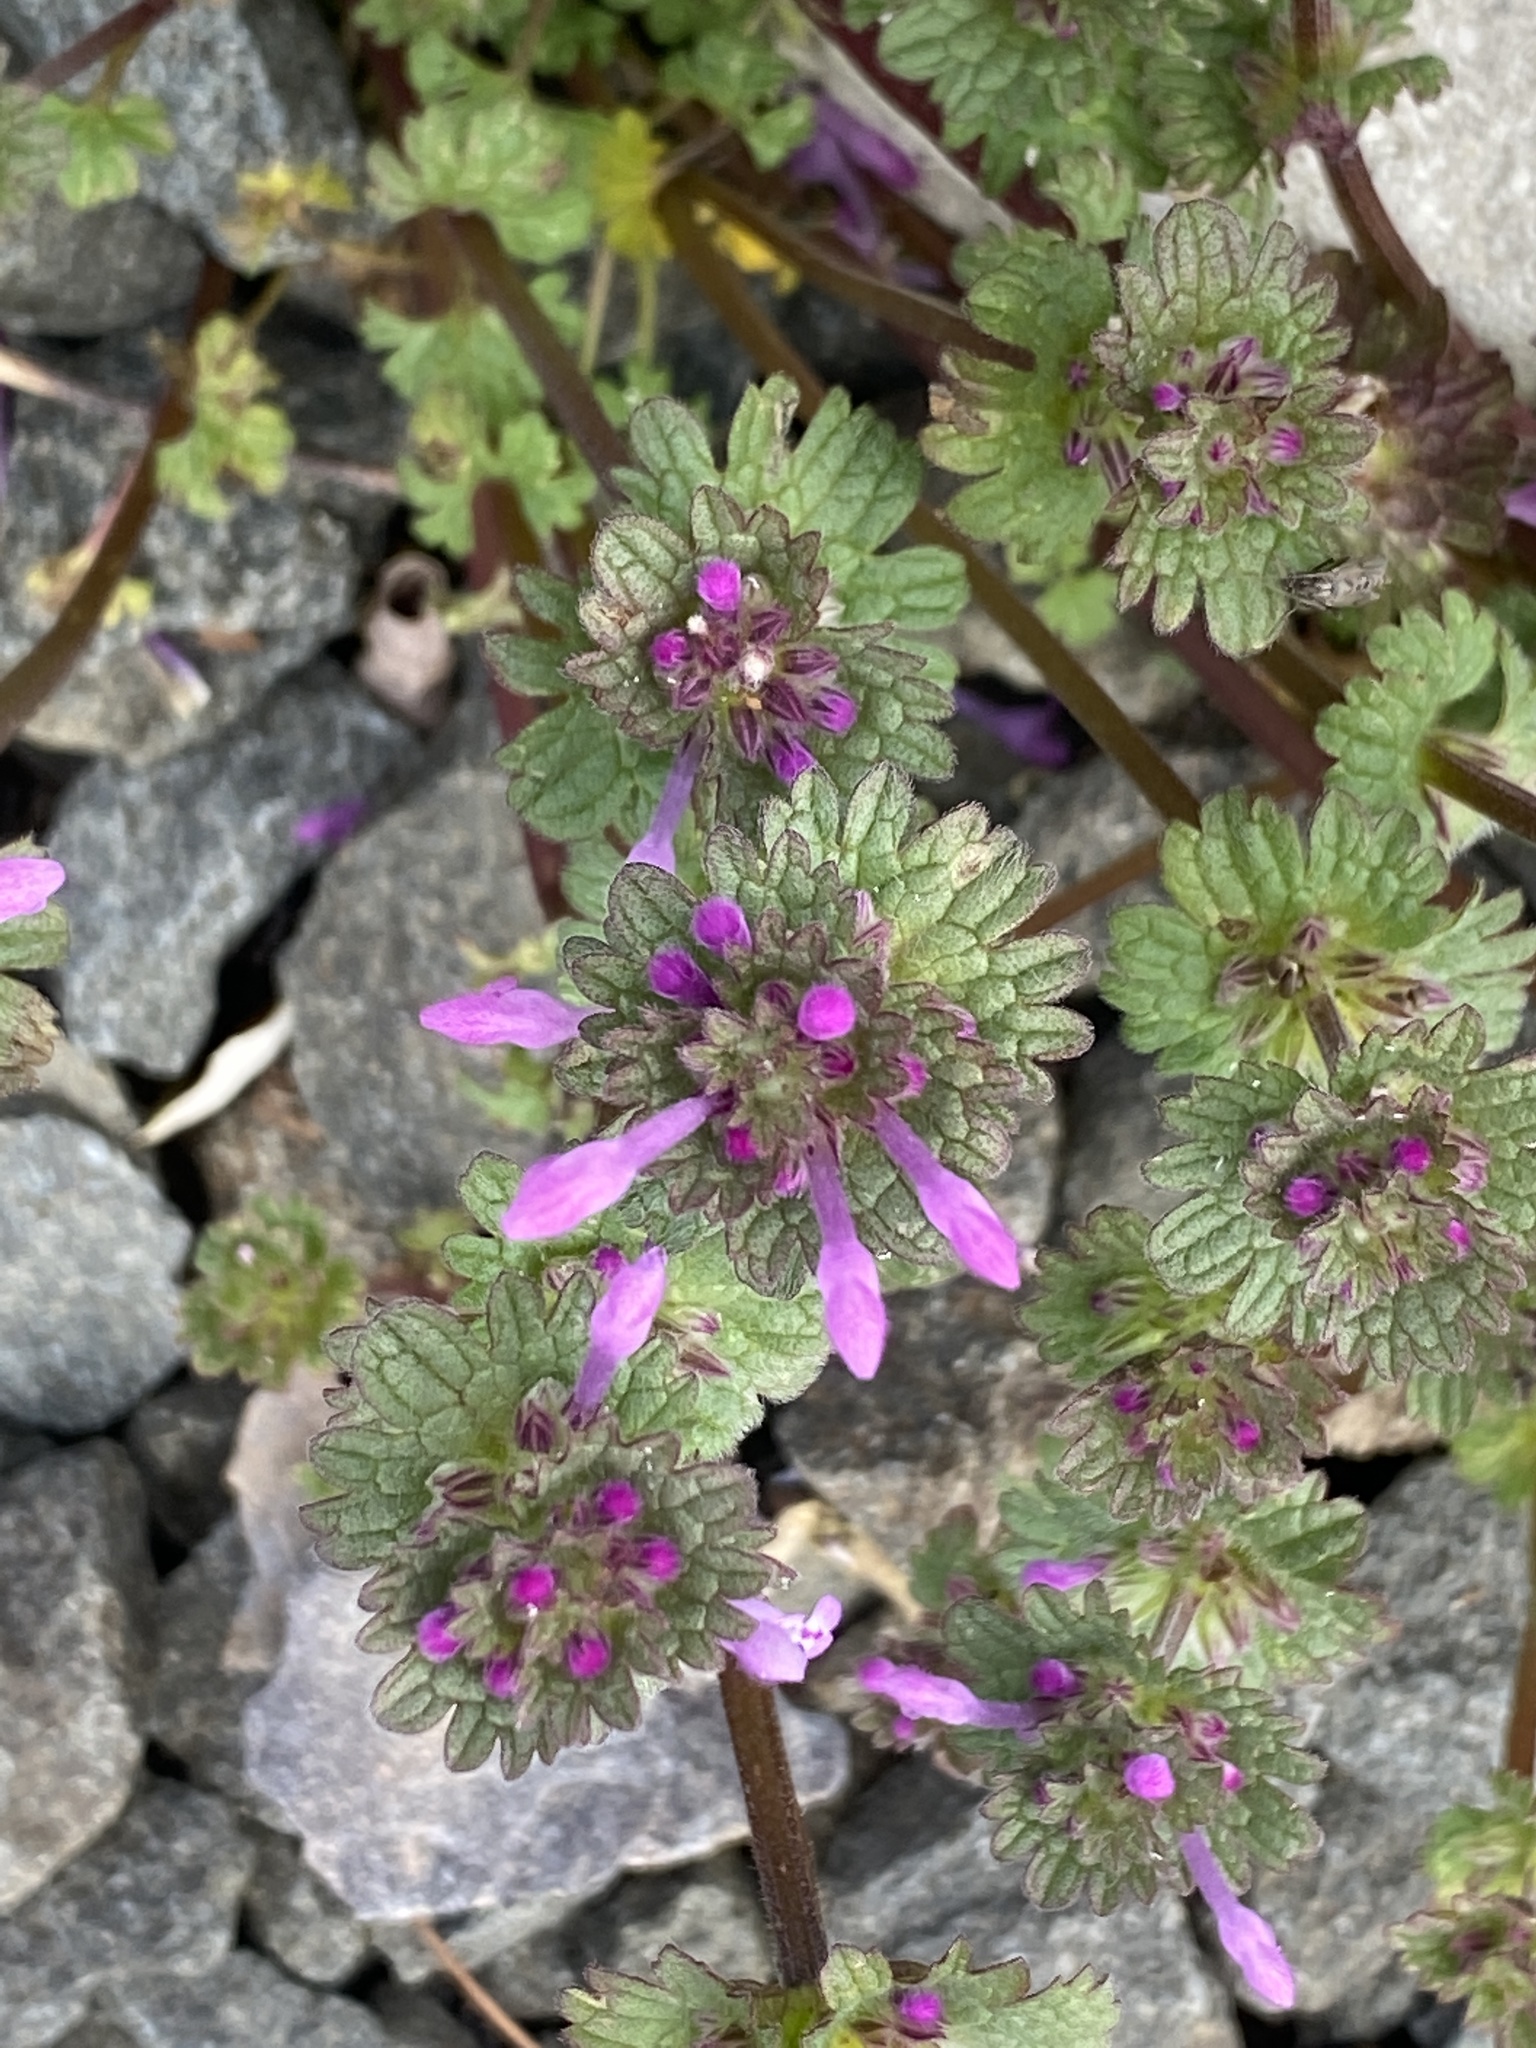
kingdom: Plantae
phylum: Tracheophyta
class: Magnoliopsida
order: Lamiales
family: Lamiaceae
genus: Lamium
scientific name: Lamium amplexicaule
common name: Henbit dead-nettle
